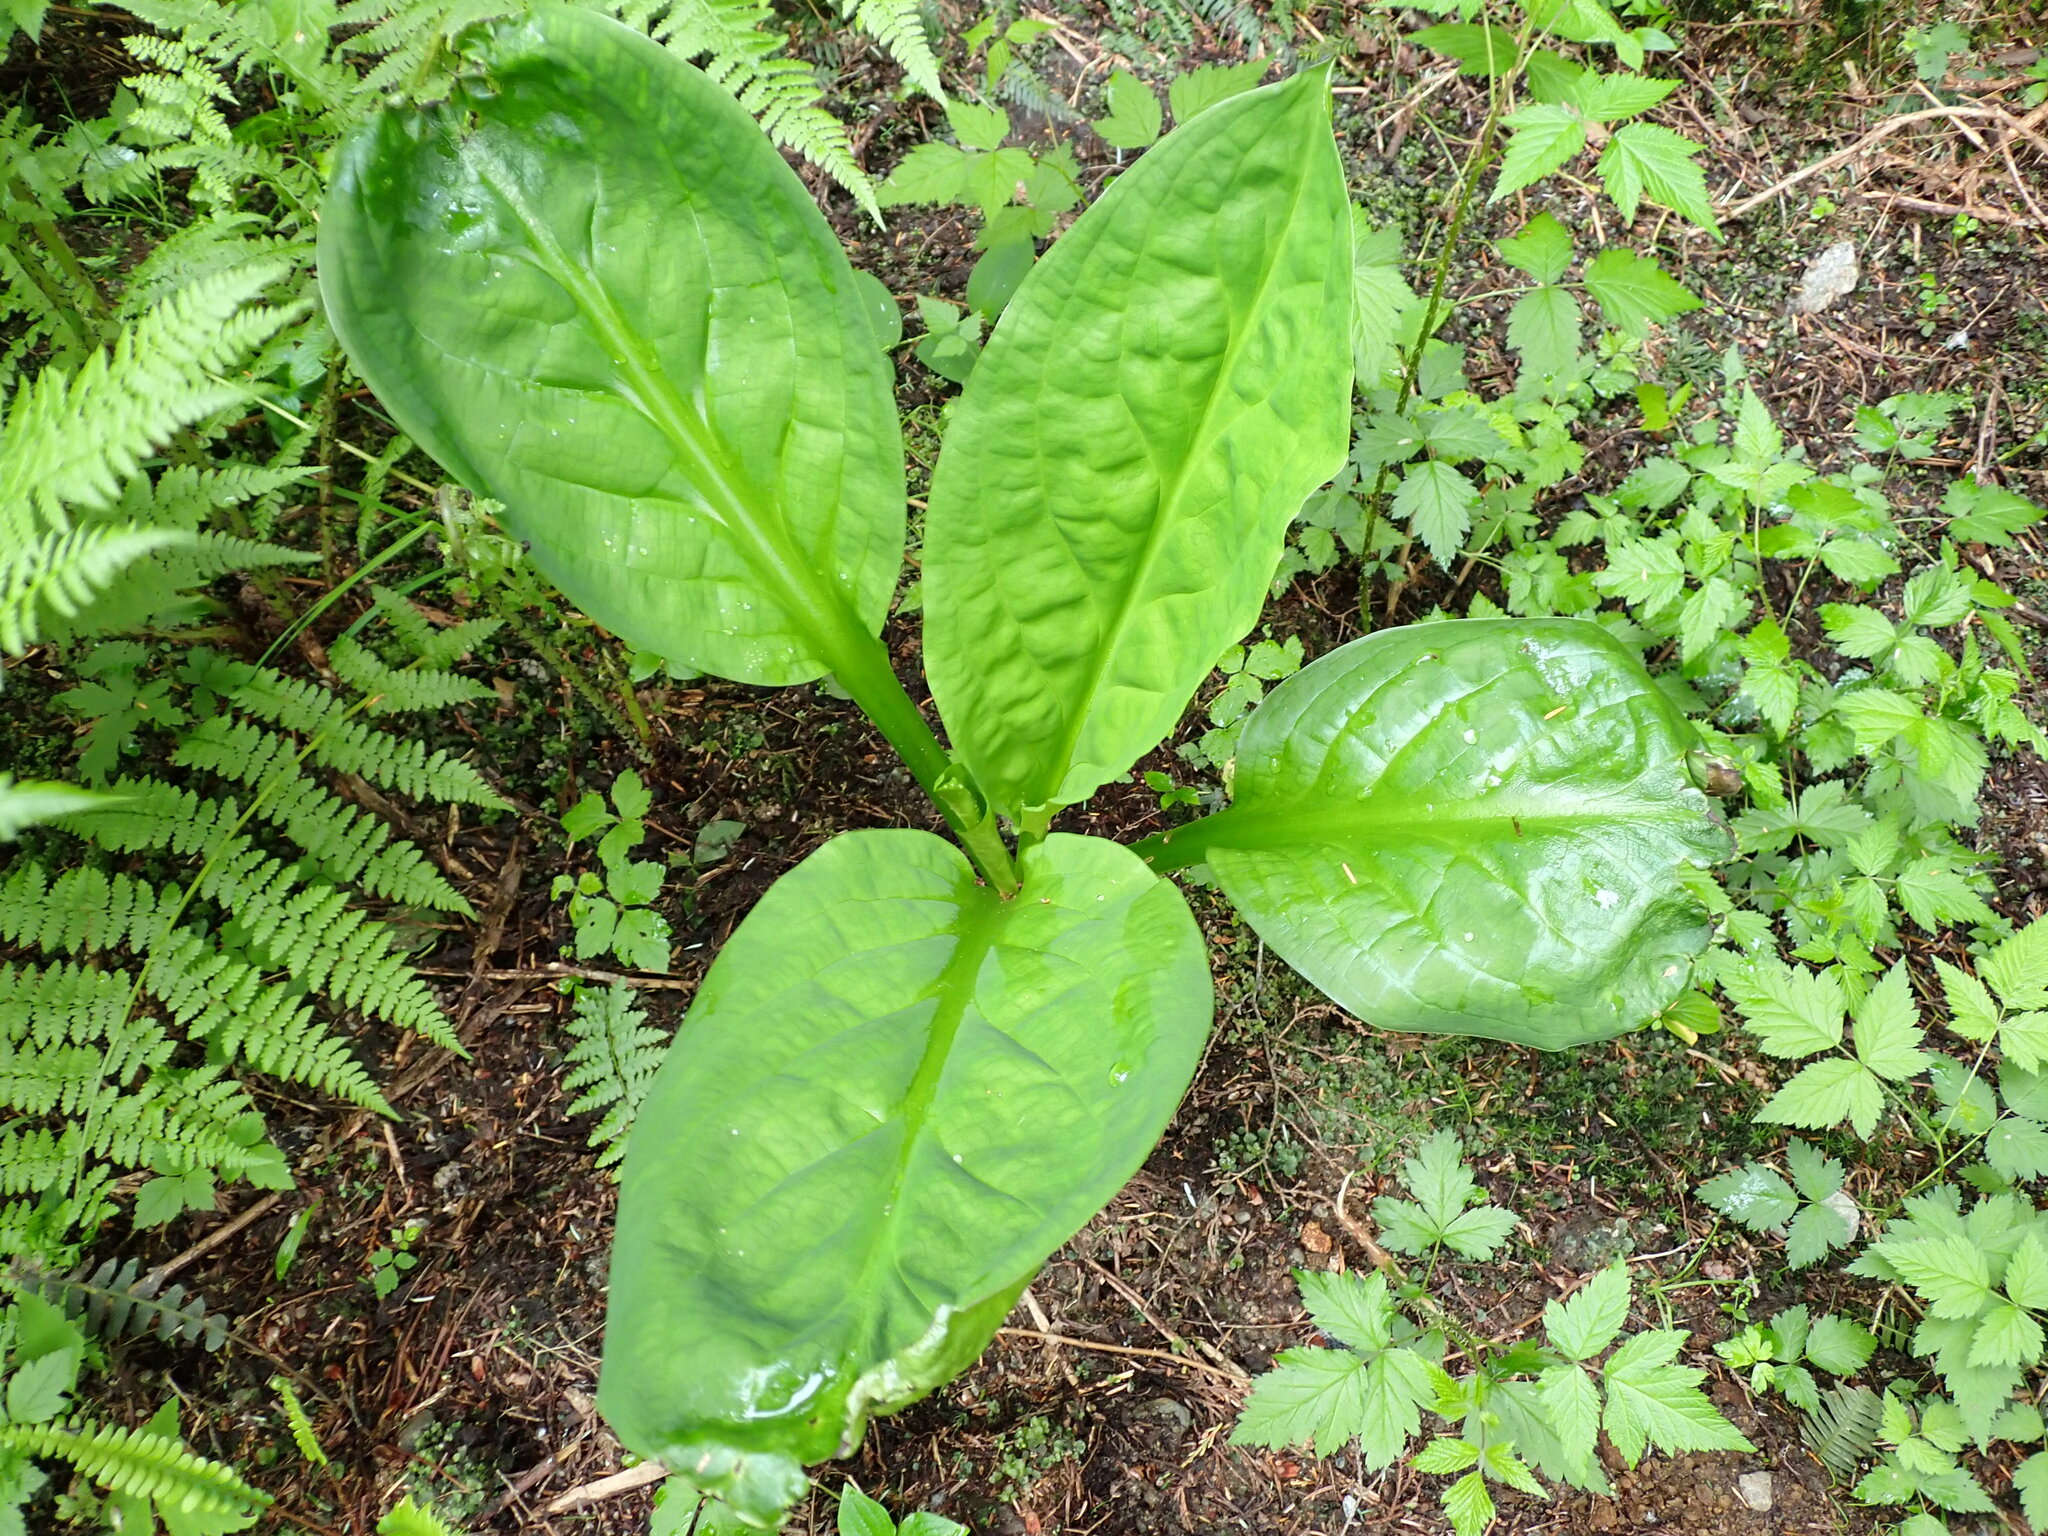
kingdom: Plantae
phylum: Tracheophyta
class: Liliopsida
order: Alismatales
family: Araceae
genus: Lysichiton
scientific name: Lysichiton americanus
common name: American skunk cabbage
